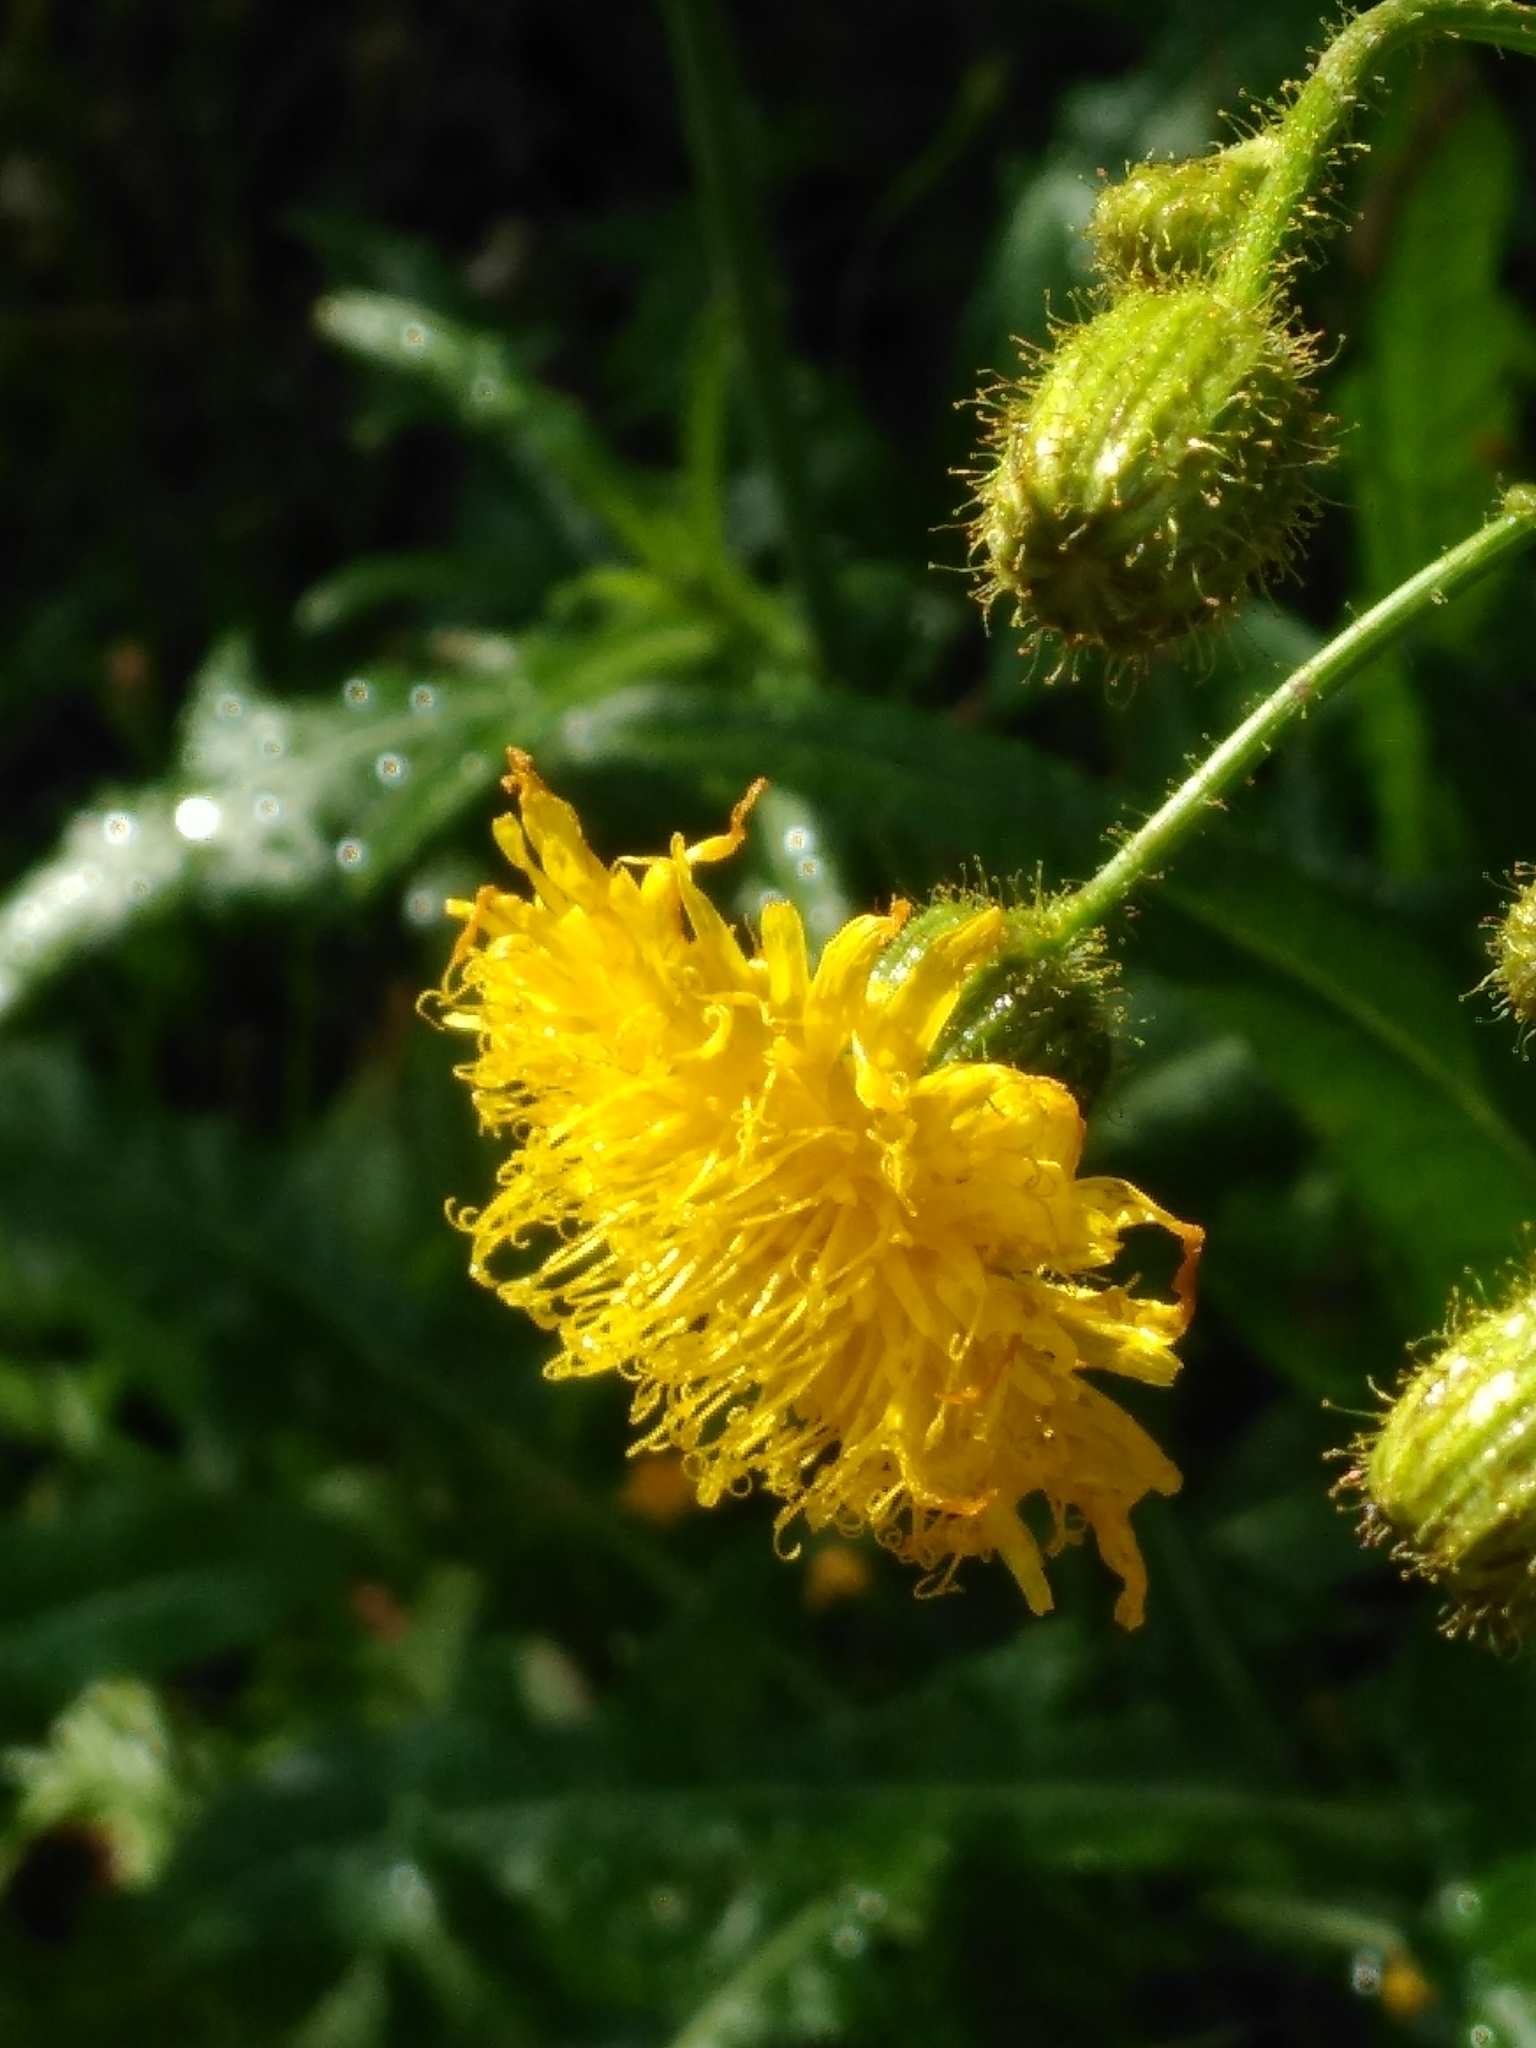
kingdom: Plantae
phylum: Tracheophyta
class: Magnoliopsida
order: Asterales
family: Asteraceae
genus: Sonchus
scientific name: Sonchus arvensis
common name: Perennial sow-thistle
